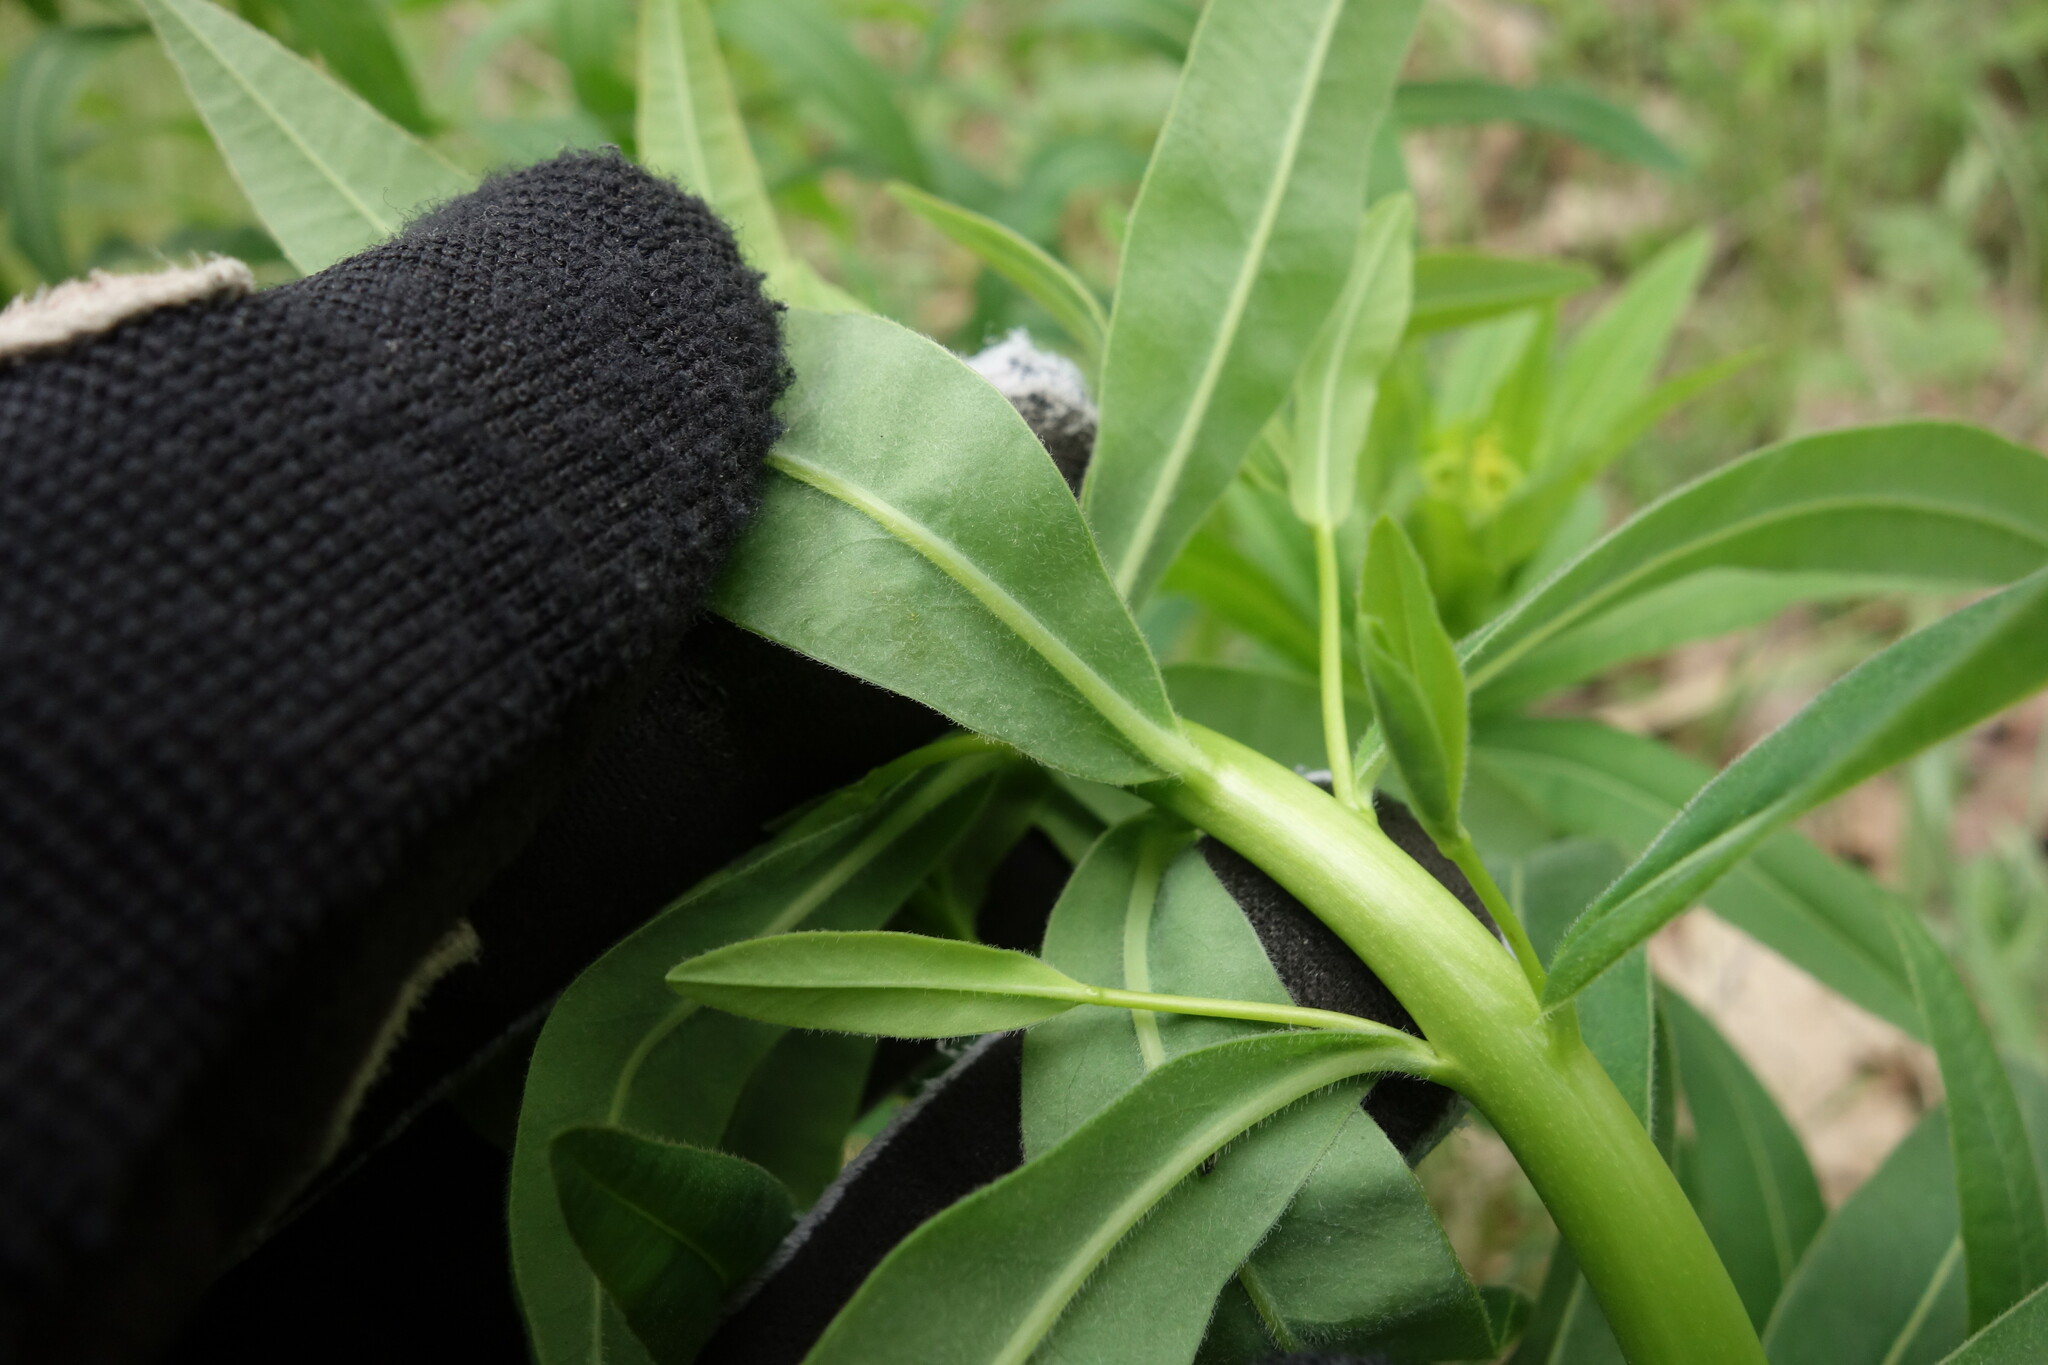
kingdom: Plantae
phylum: Tracheophyta
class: Magnoliopsida
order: Malpighiales
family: Euphorbiaceae
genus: Euphorbia
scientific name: Euphorbia semivillosa
